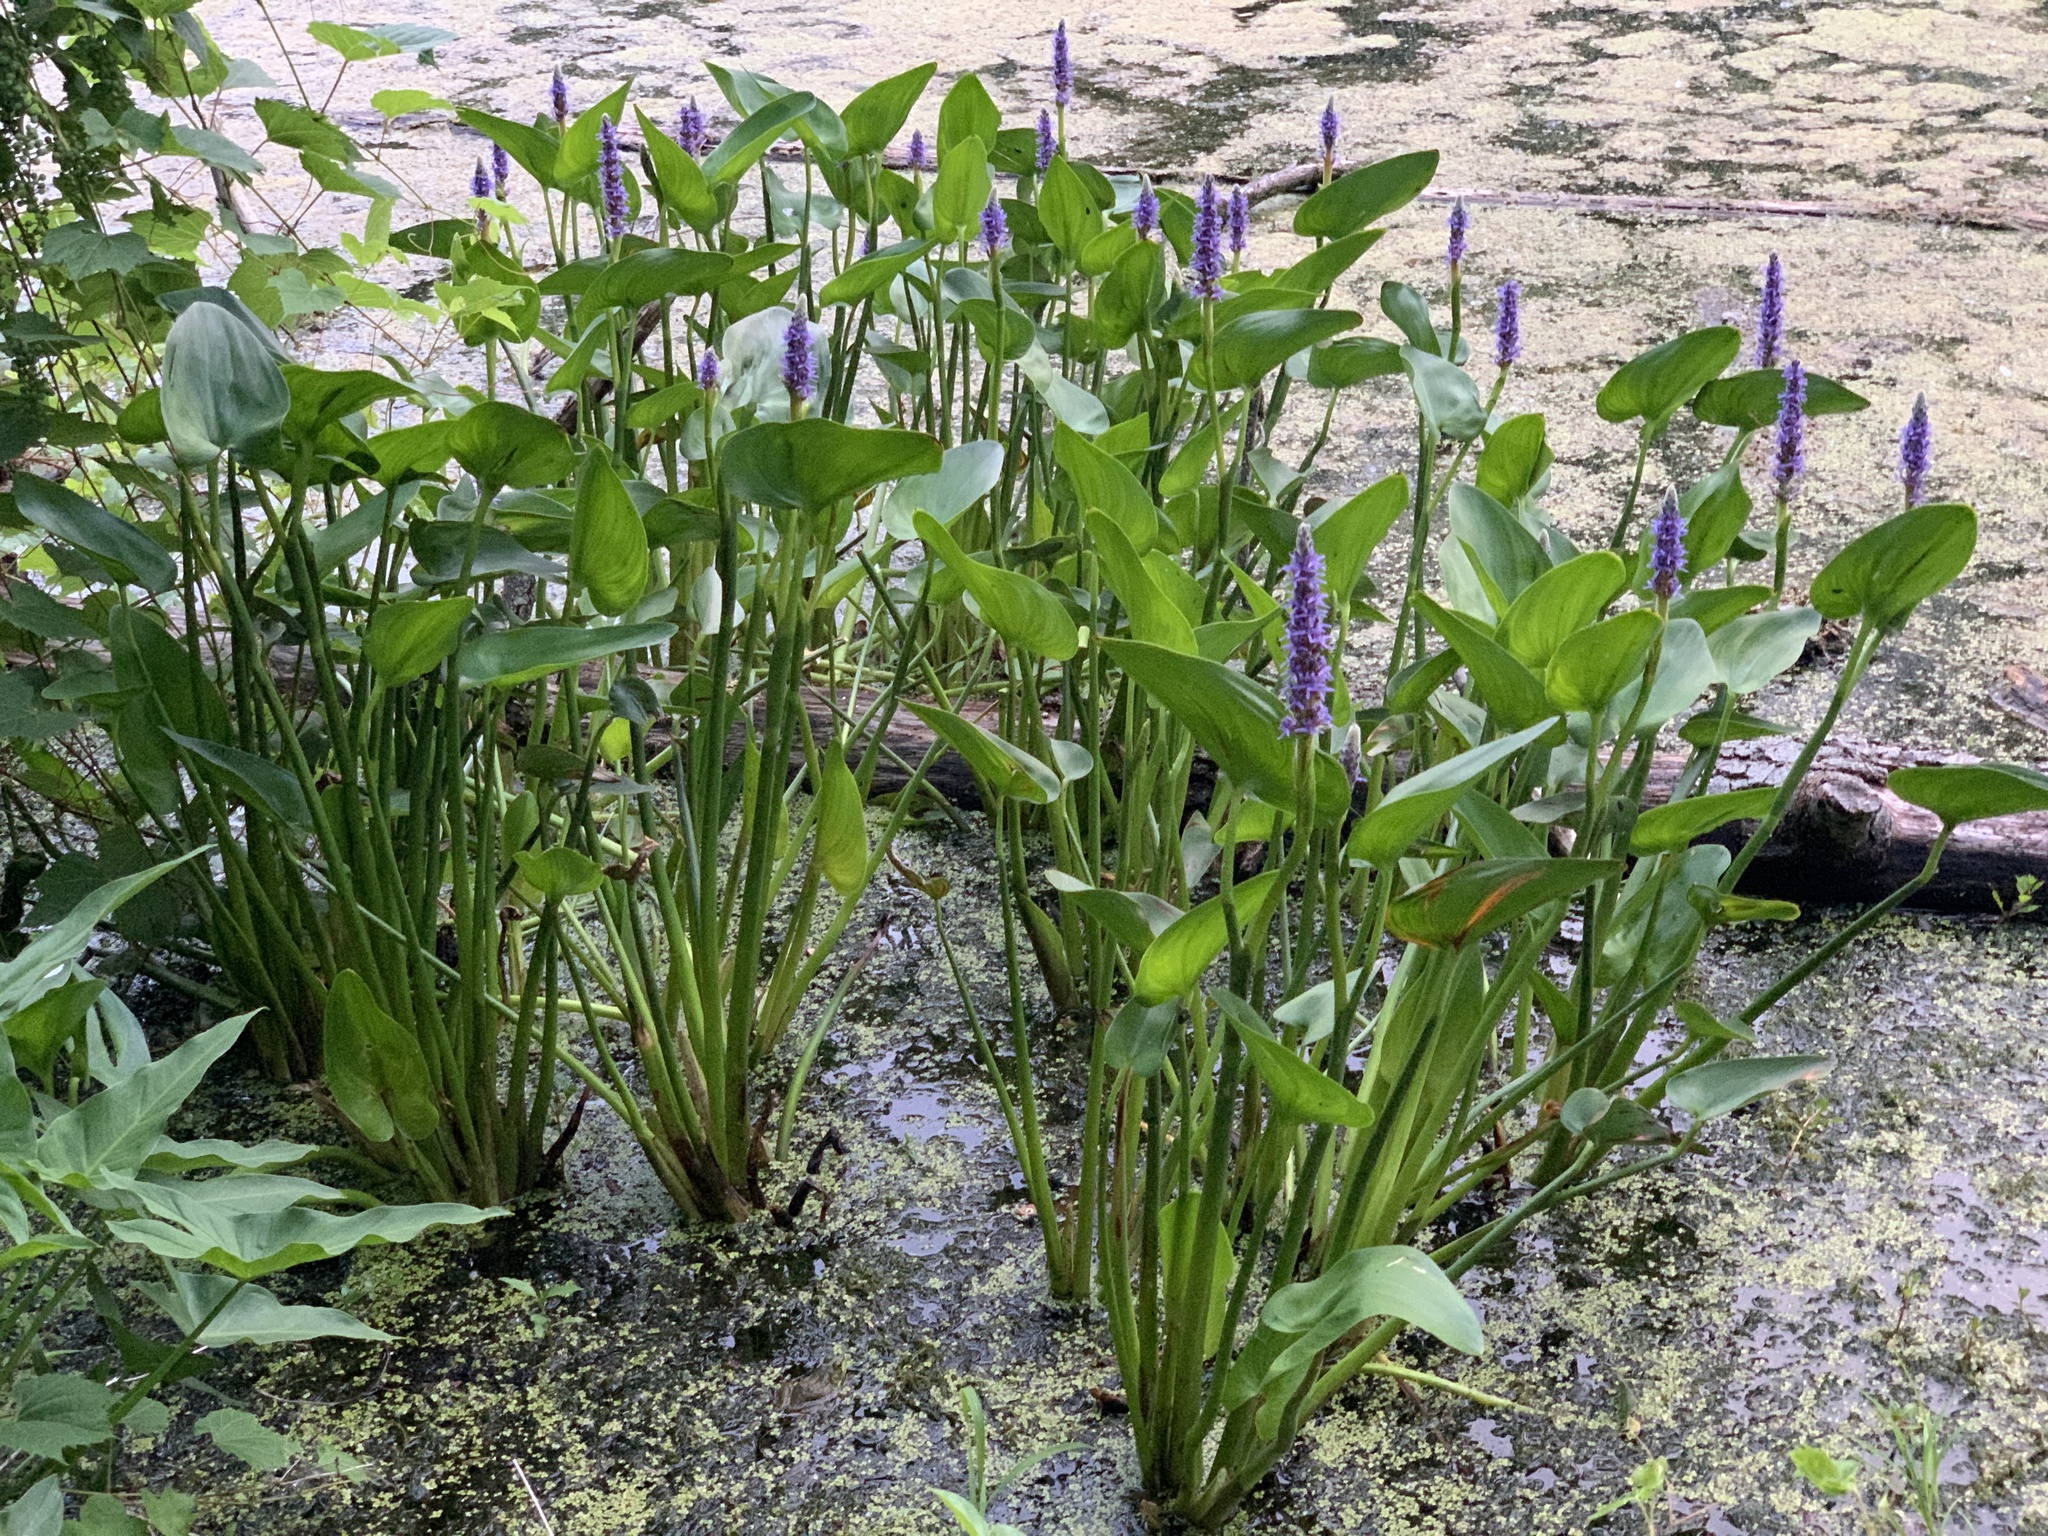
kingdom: Plantae
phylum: Tracheophyta
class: Liliopsida
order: Commelinales
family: Pontederiaceae
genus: Pontederia
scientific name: Pontederia cordata
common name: Pickerelweed
